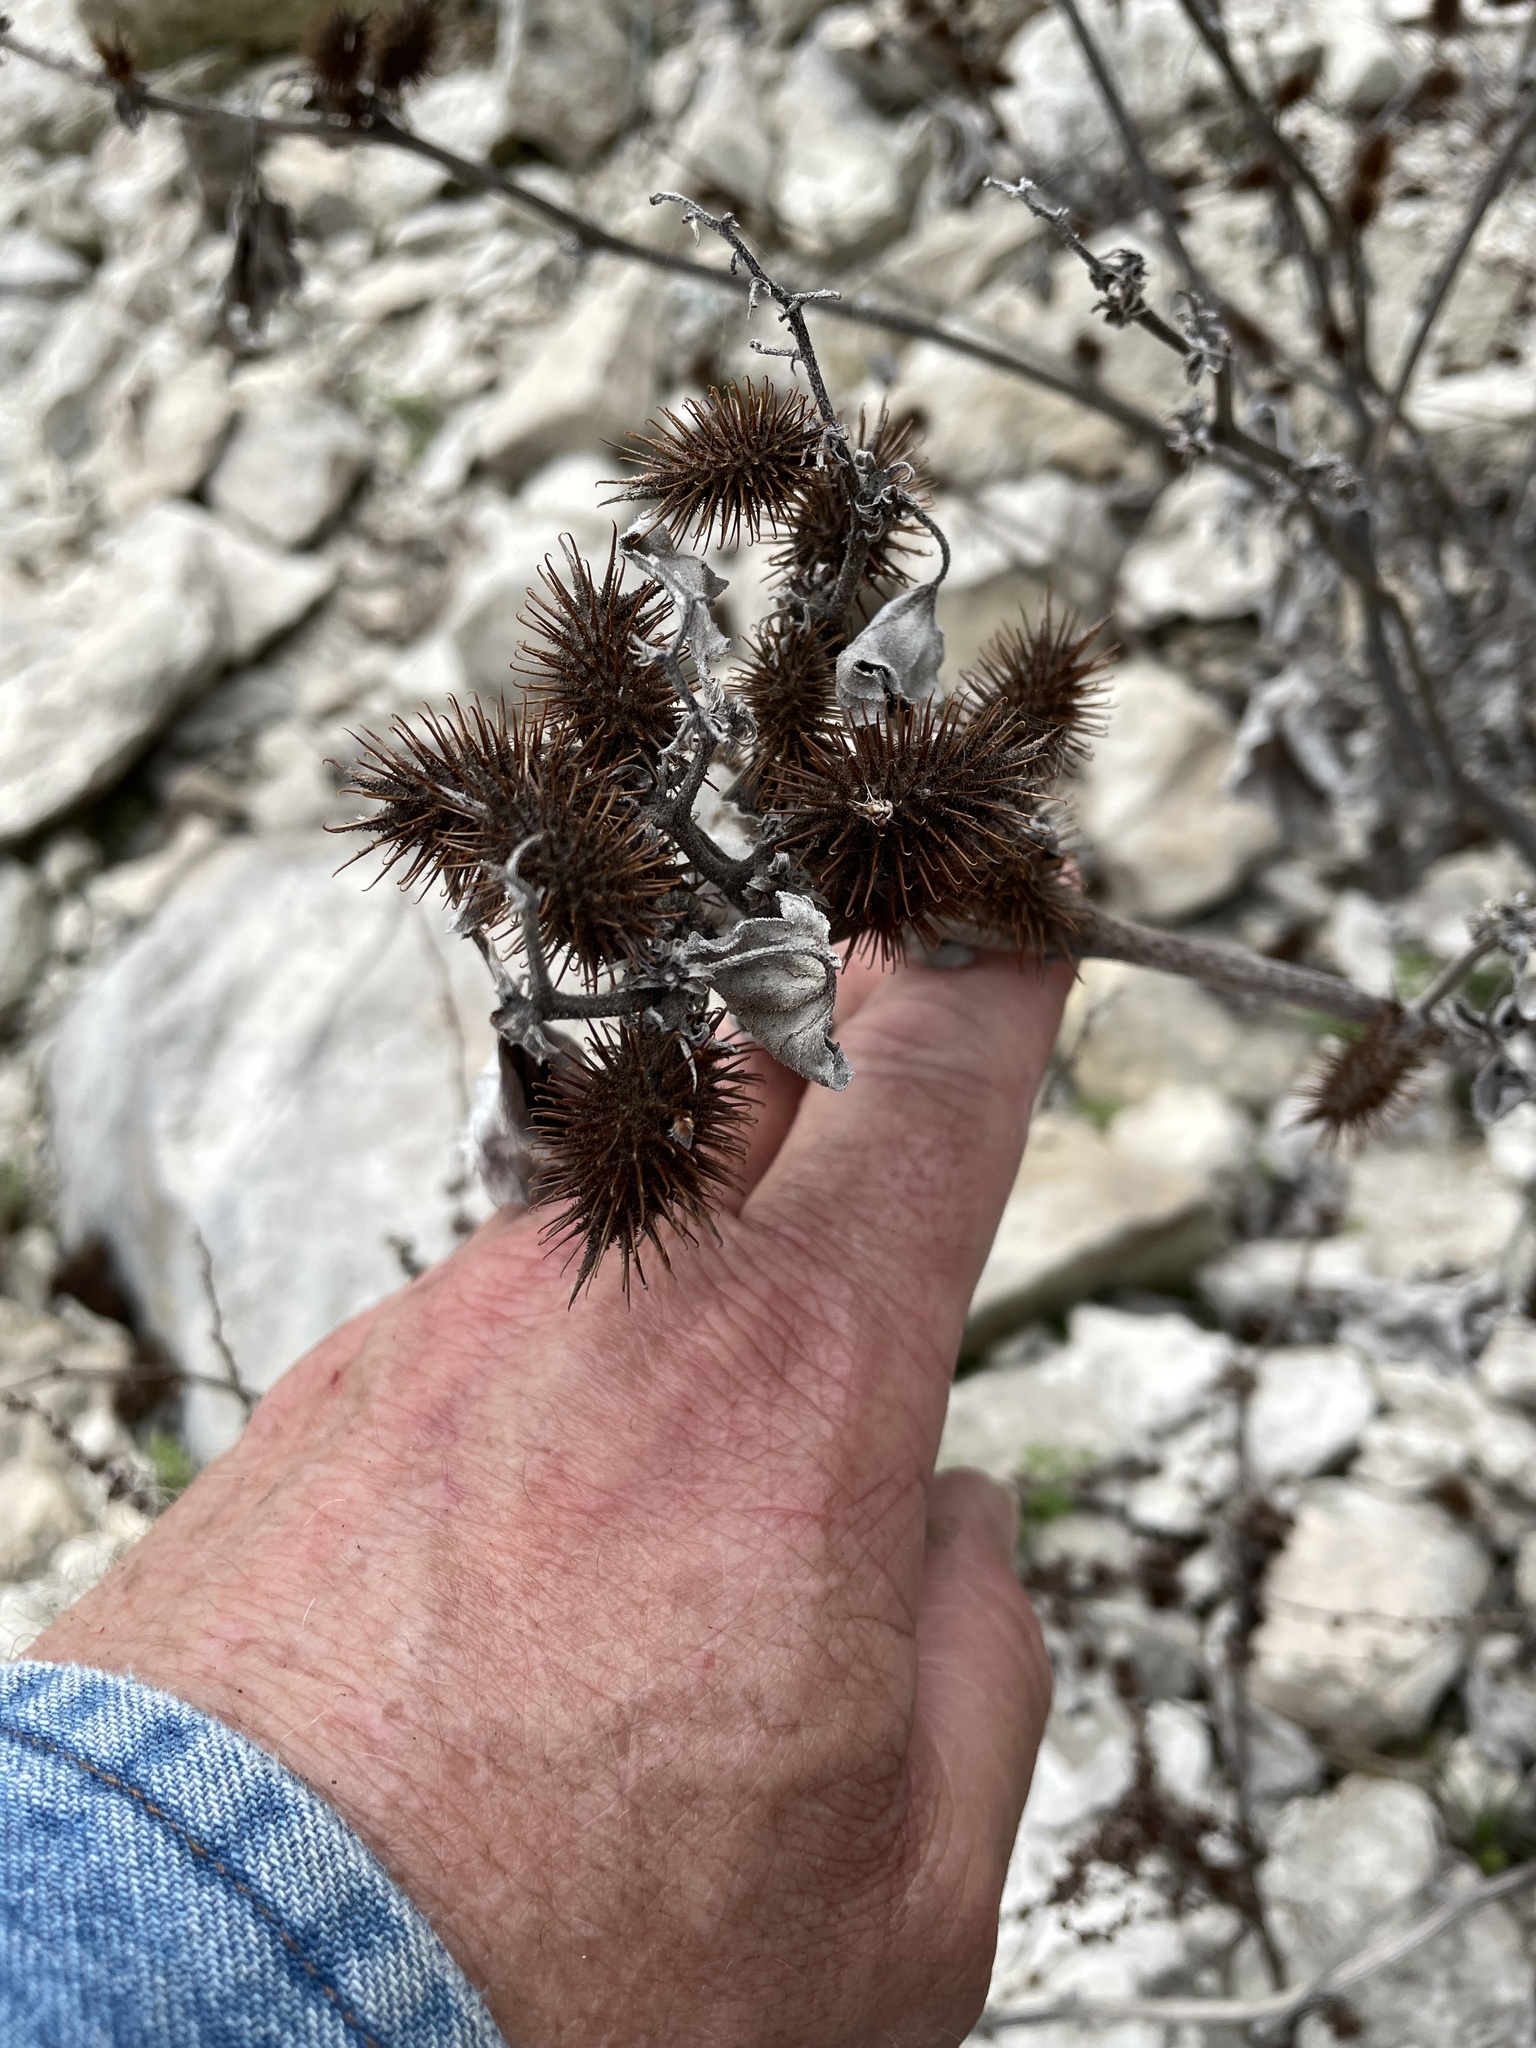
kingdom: Plantae
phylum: Tracheophyta
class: Magnoliopsida
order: Asterales
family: Asteraceae
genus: Xanthium
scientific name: Xanthium strumarium
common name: Rough cocklebur
